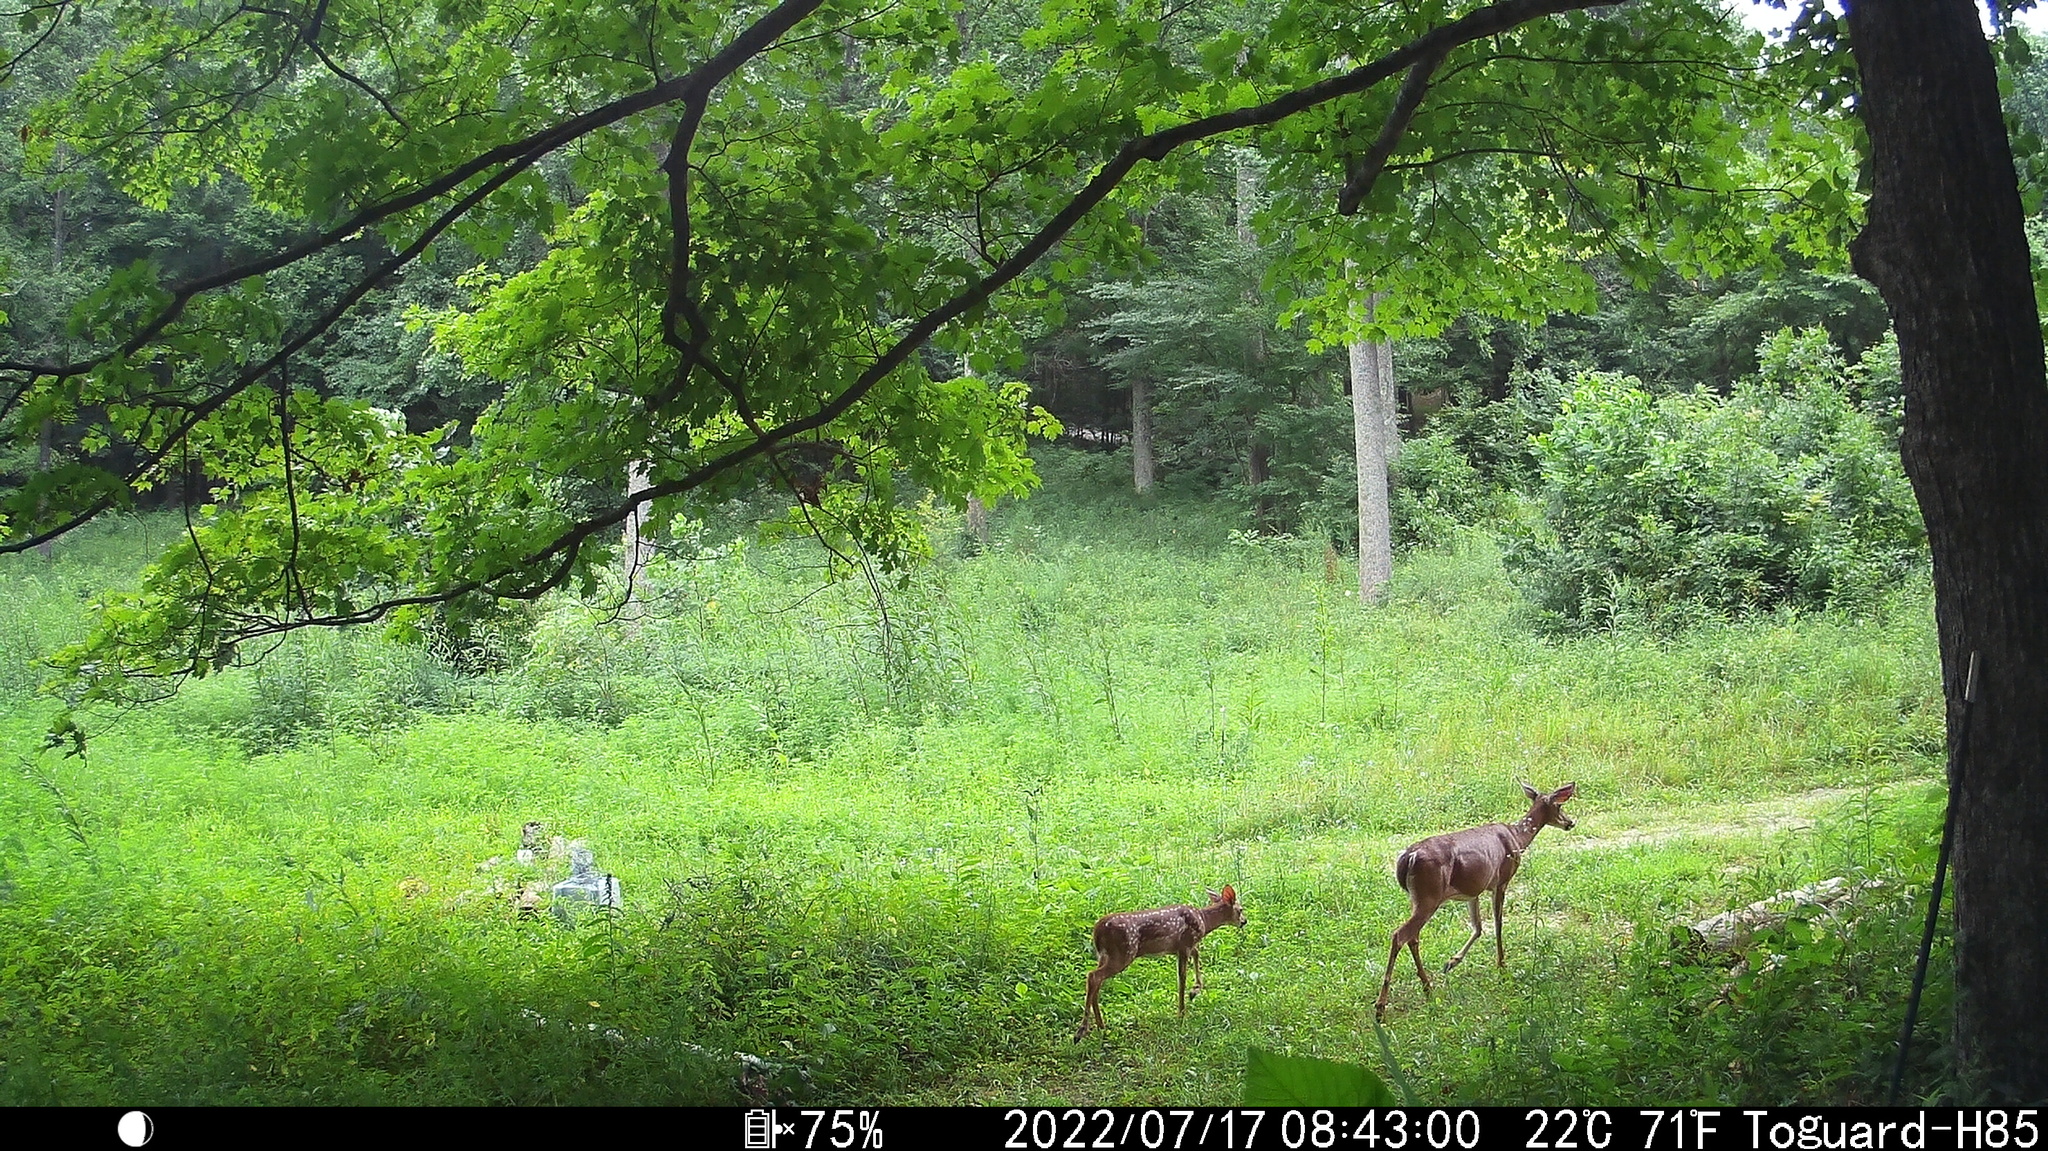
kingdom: Animalia
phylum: Chordata
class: Mammalia
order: Artiodactyla
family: Cervidae
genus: Odocoileus
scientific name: Odocoileus virginianus
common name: White-tailed deer
